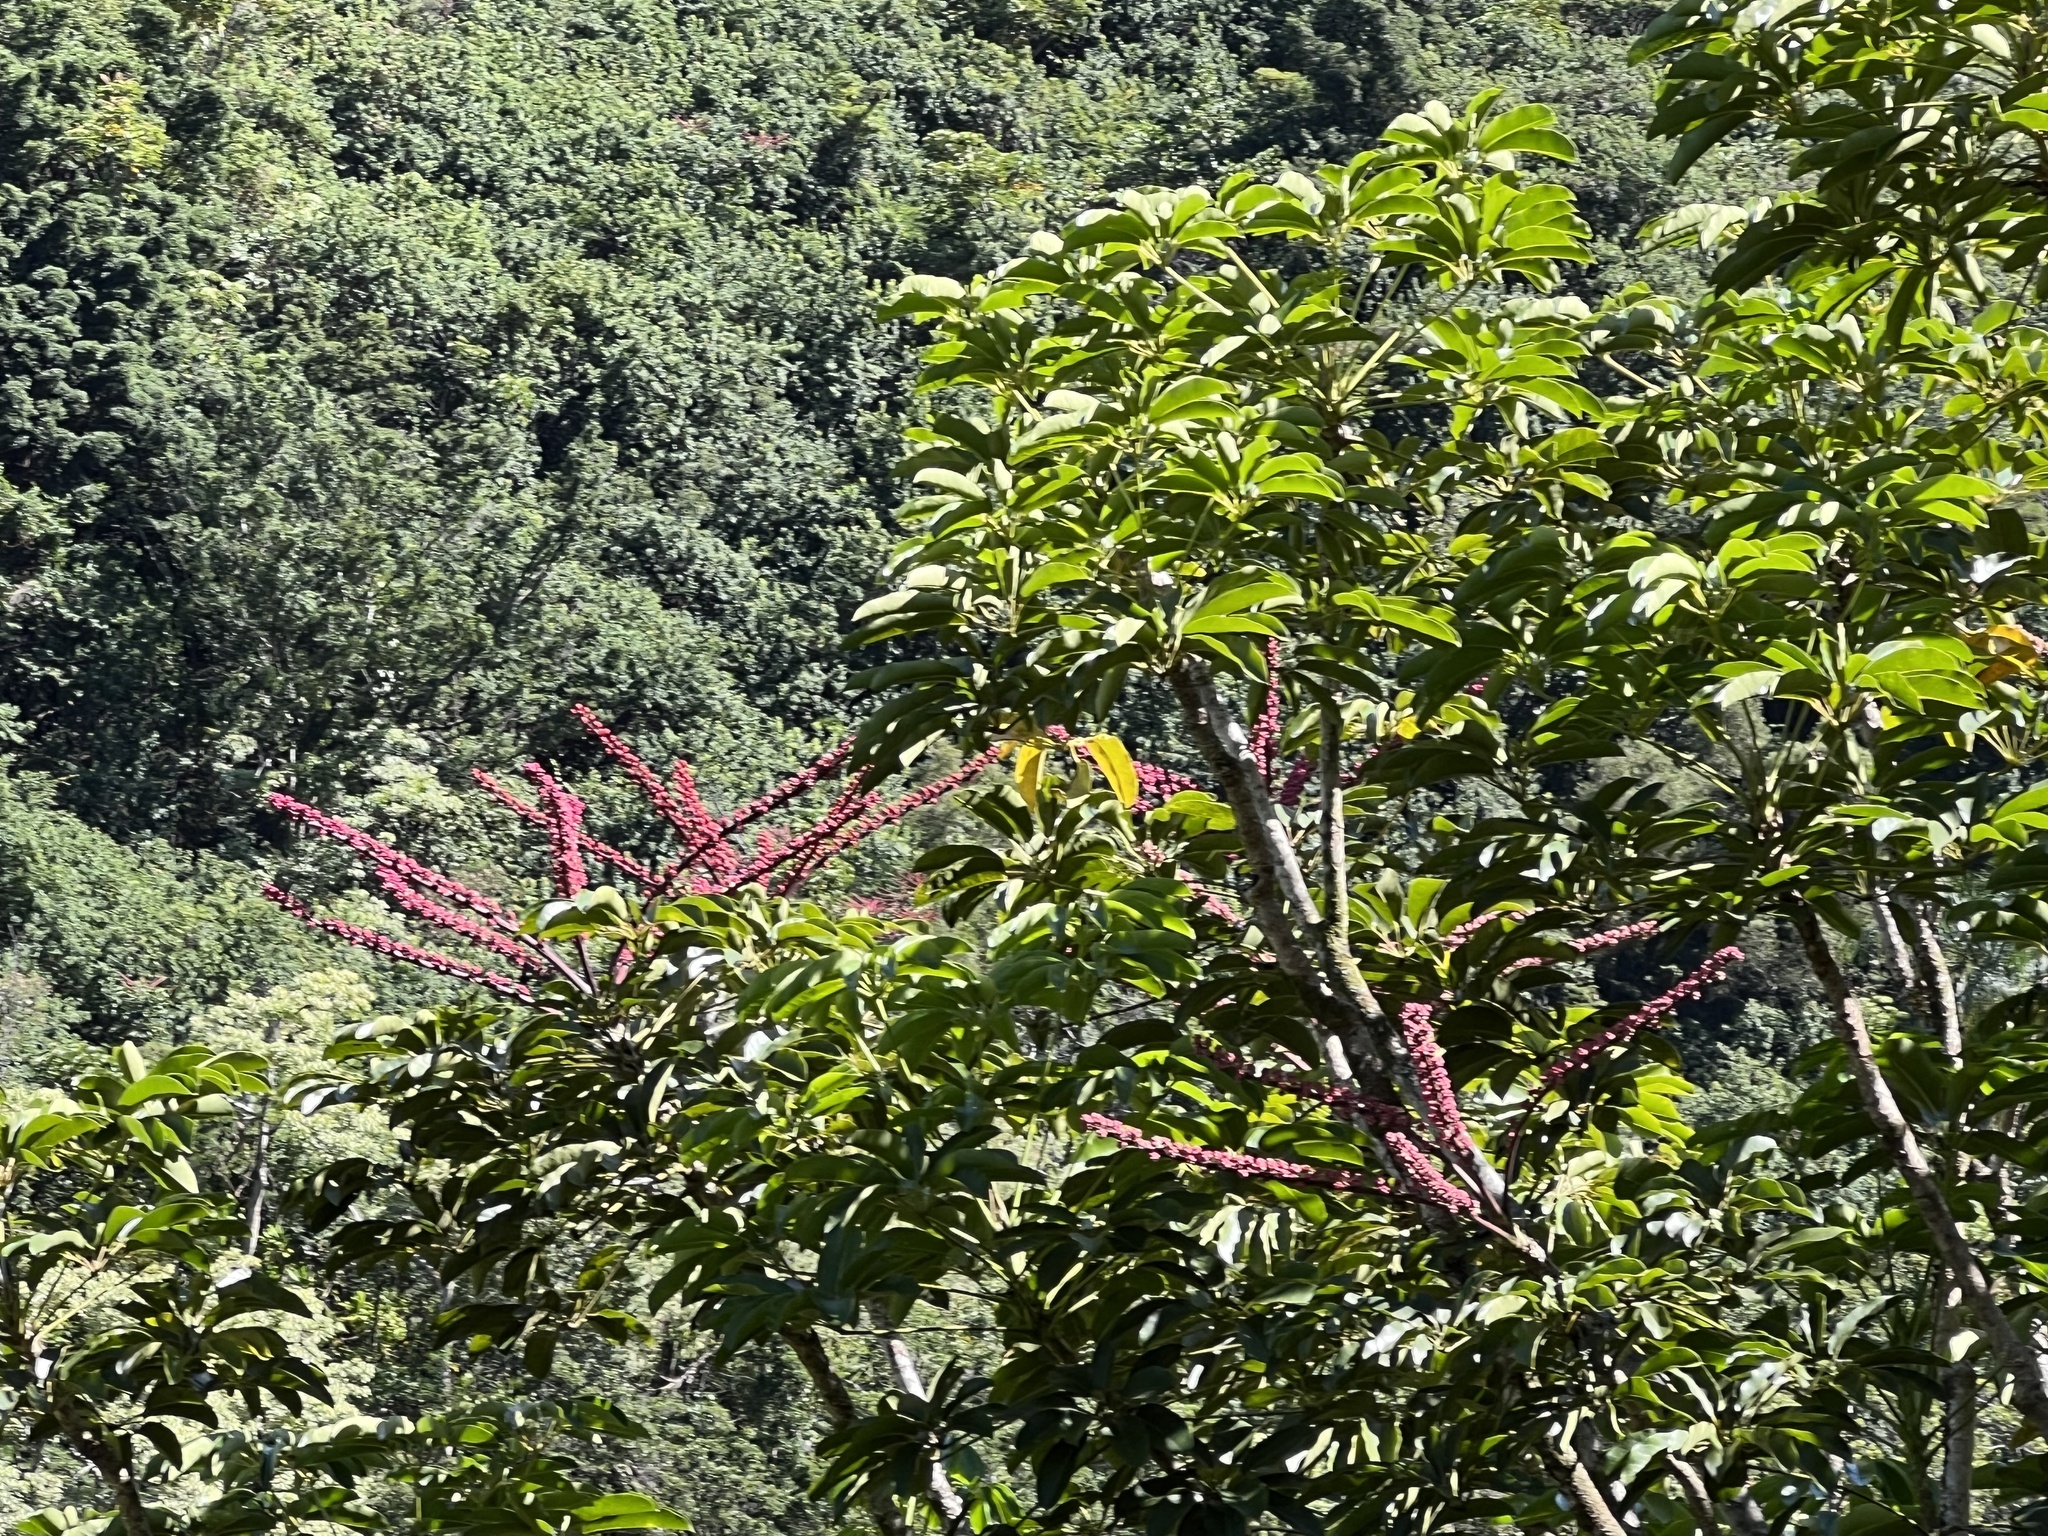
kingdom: Plantae
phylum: Tracheophyta
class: Magnoliopsida
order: Apiales
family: Araliaceae
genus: Heptapleurum
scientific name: Heptapleurum actinophyllum
